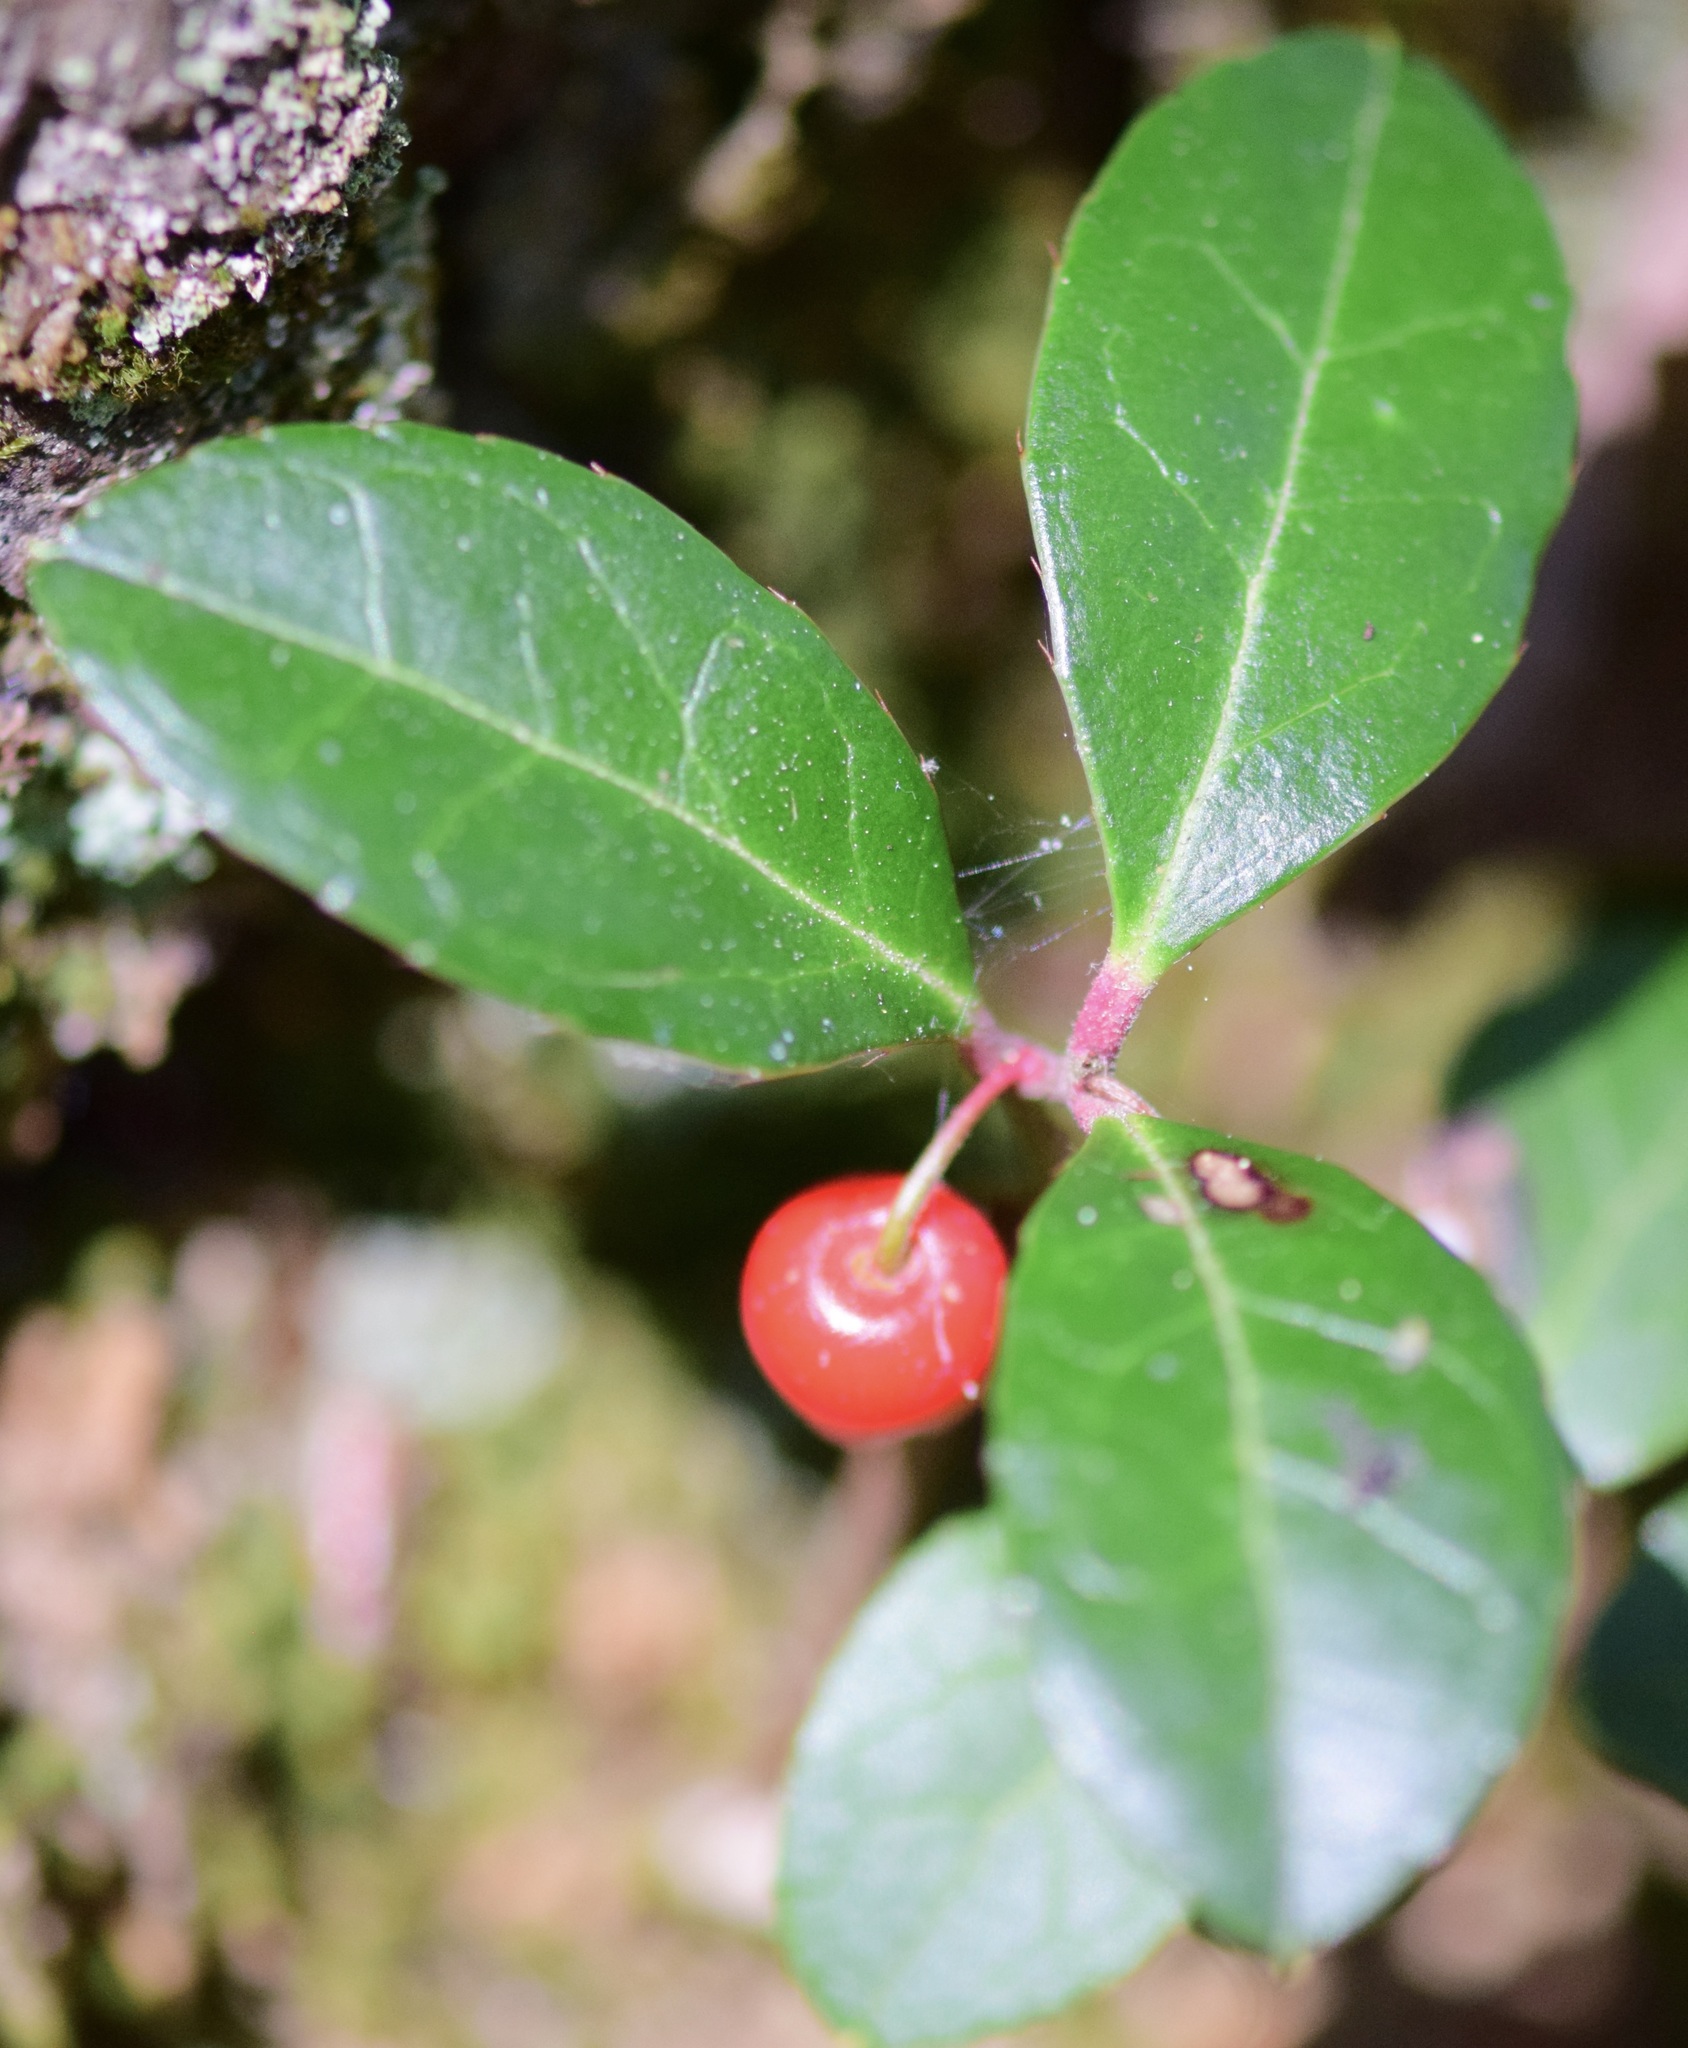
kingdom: Plantae
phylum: Tracheophyta
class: Magnoliopsida
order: Ericales
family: Ericaceae
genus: Gaultheria
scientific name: Gaultheria procumbens
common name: Checkerberry
